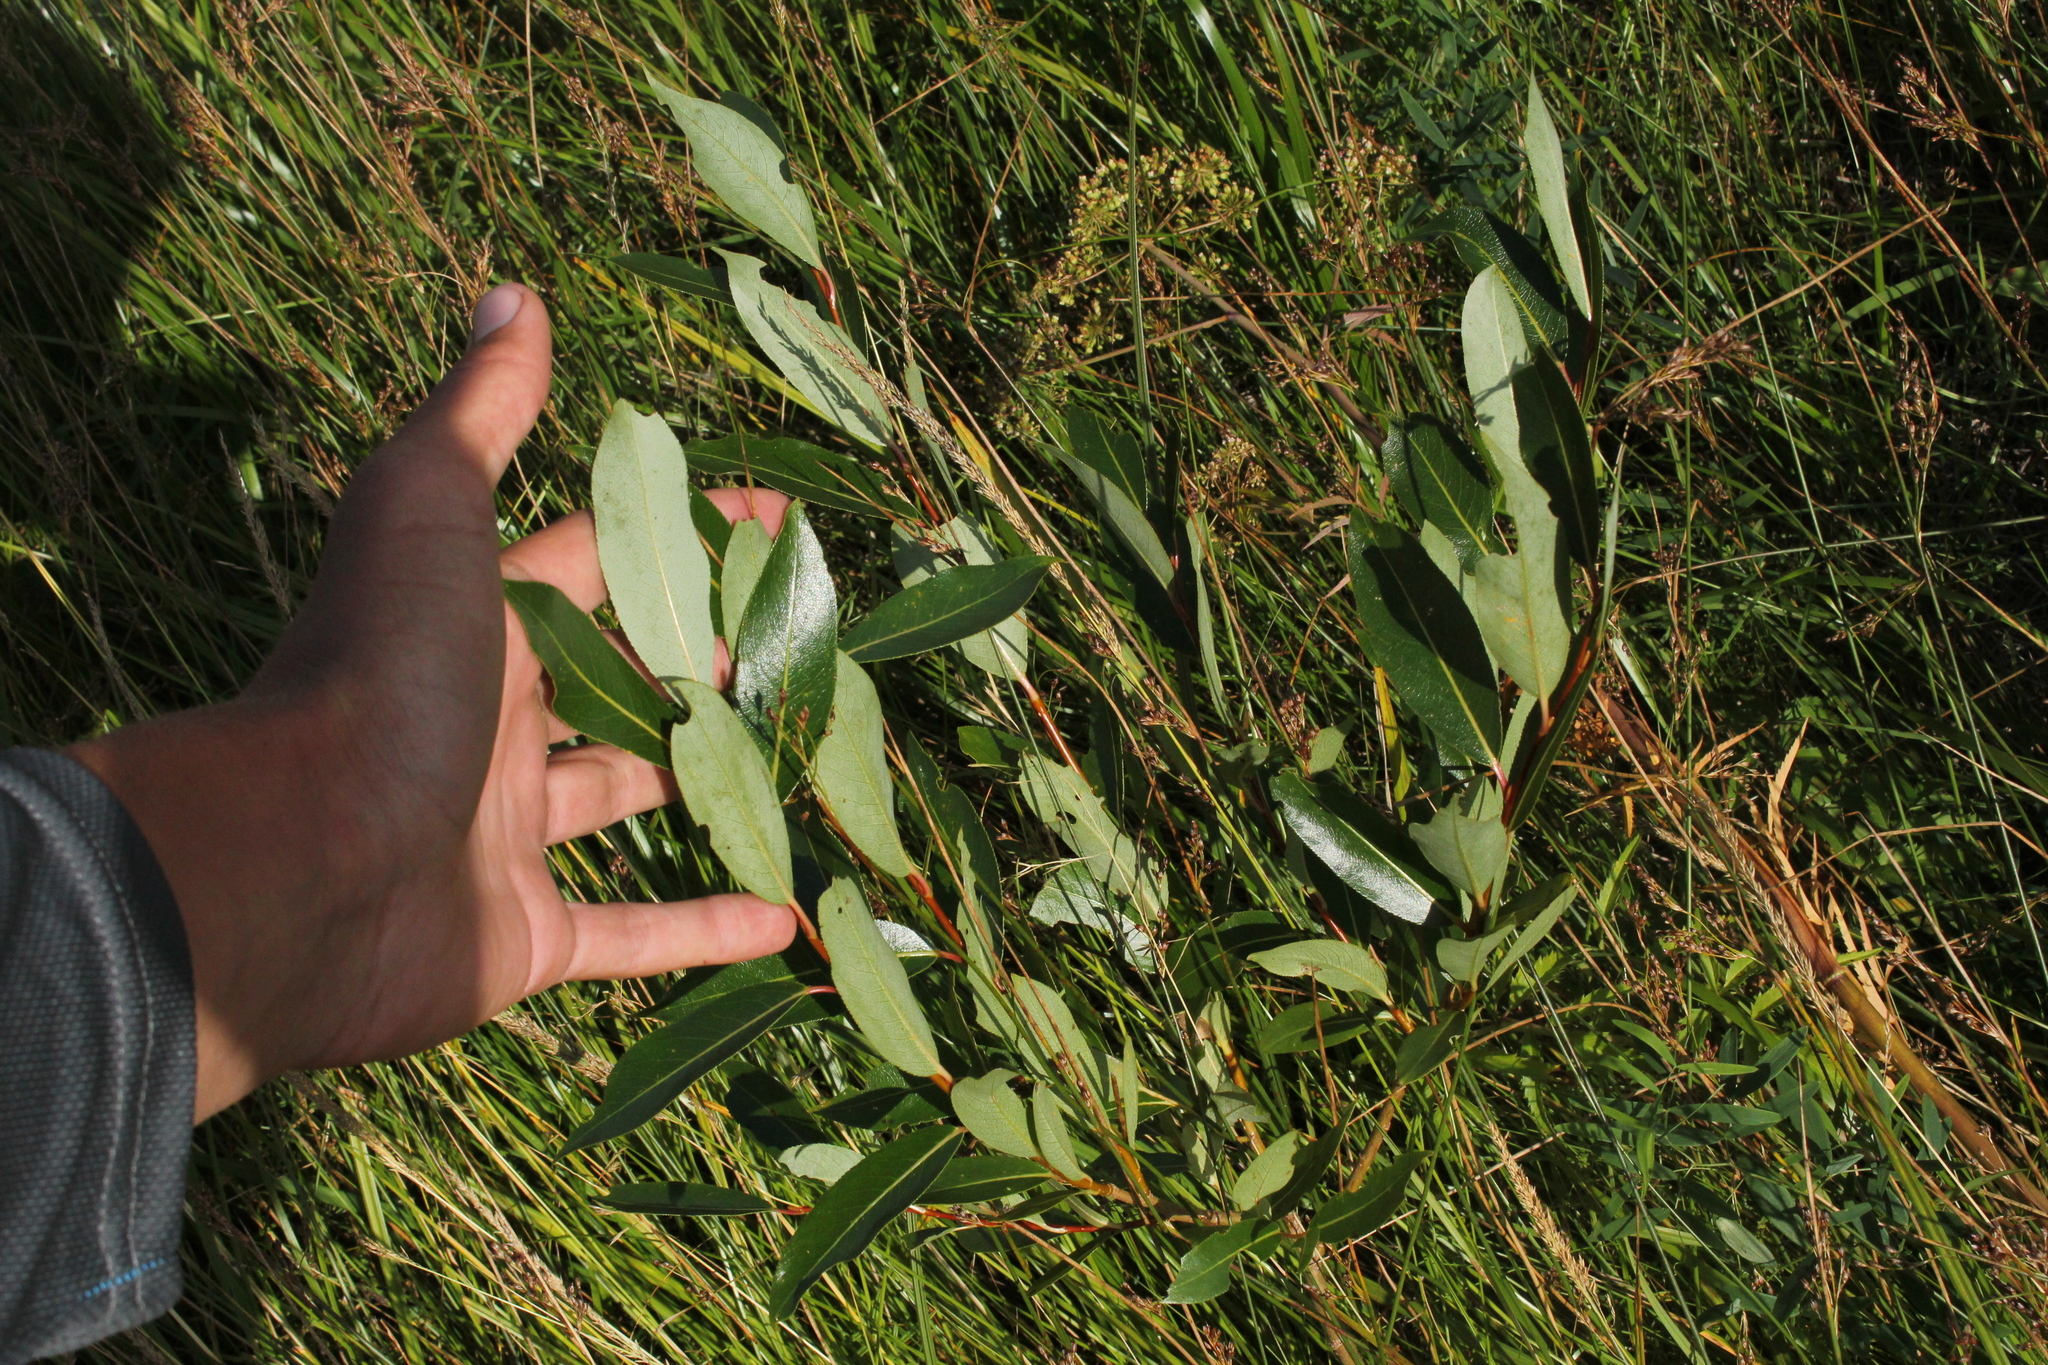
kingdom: Plantae
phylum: Tracheophyta
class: Magnoliopsida
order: Malpighiales
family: Salicaceae
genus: Salix
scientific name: Salix serissima
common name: Autumn willow
